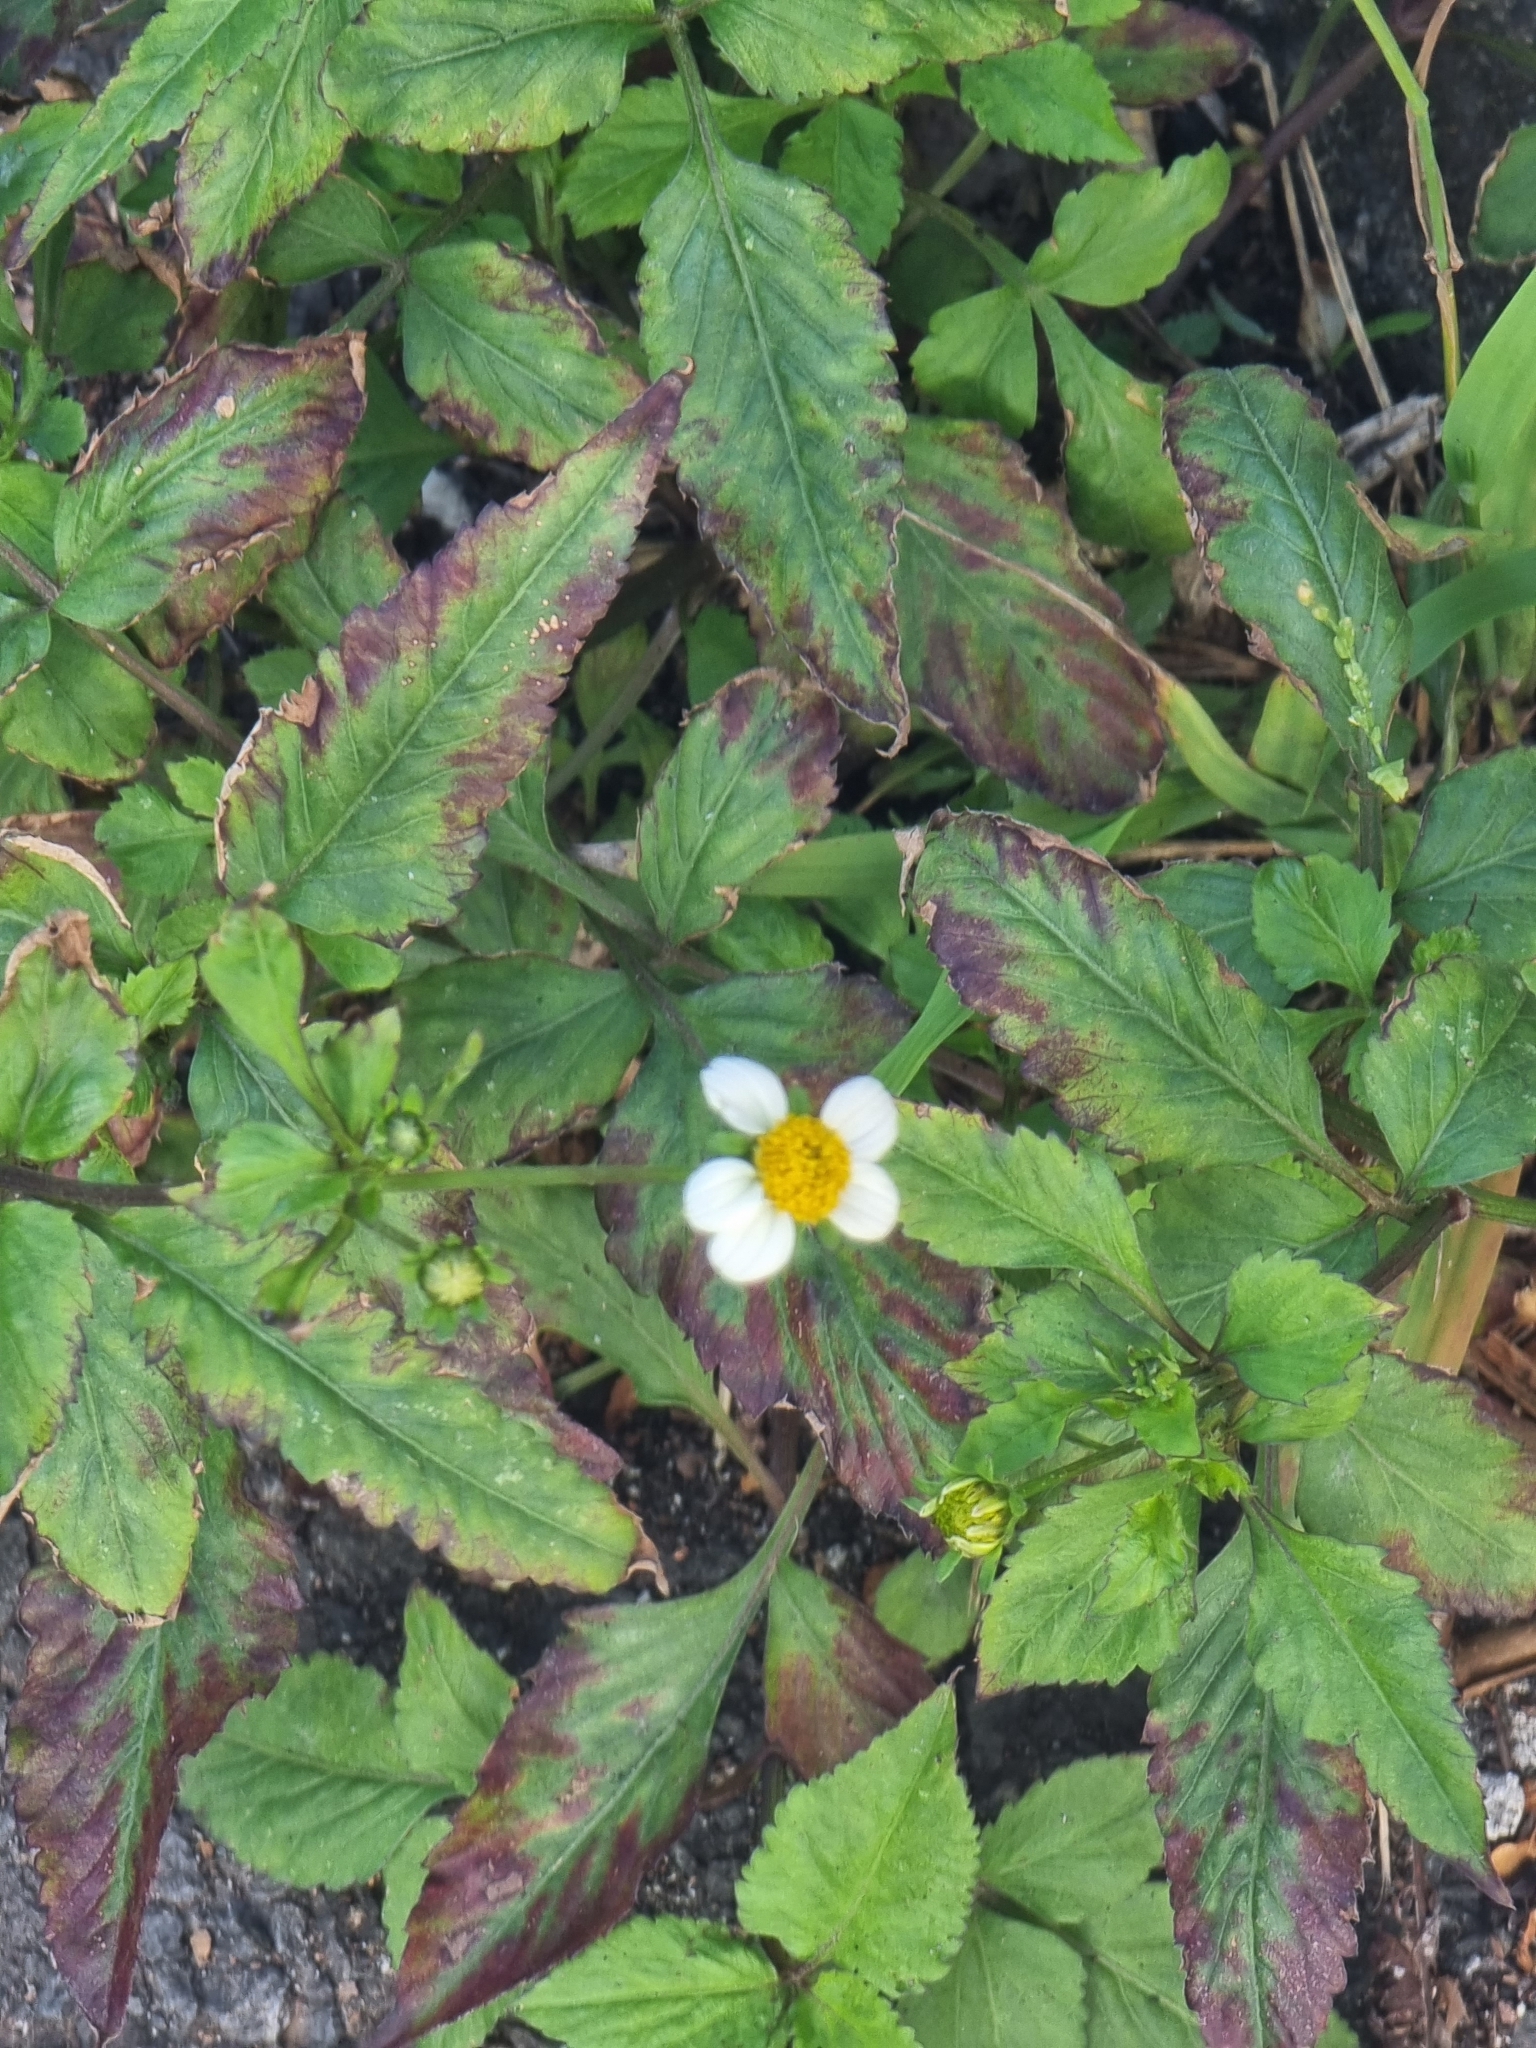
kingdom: Plantae
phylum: Tracheophyta
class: Magnoliopsida
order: Asterales
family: Asteraceae
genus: Bidens
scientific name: Bidens pilosa
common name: Black-jack
